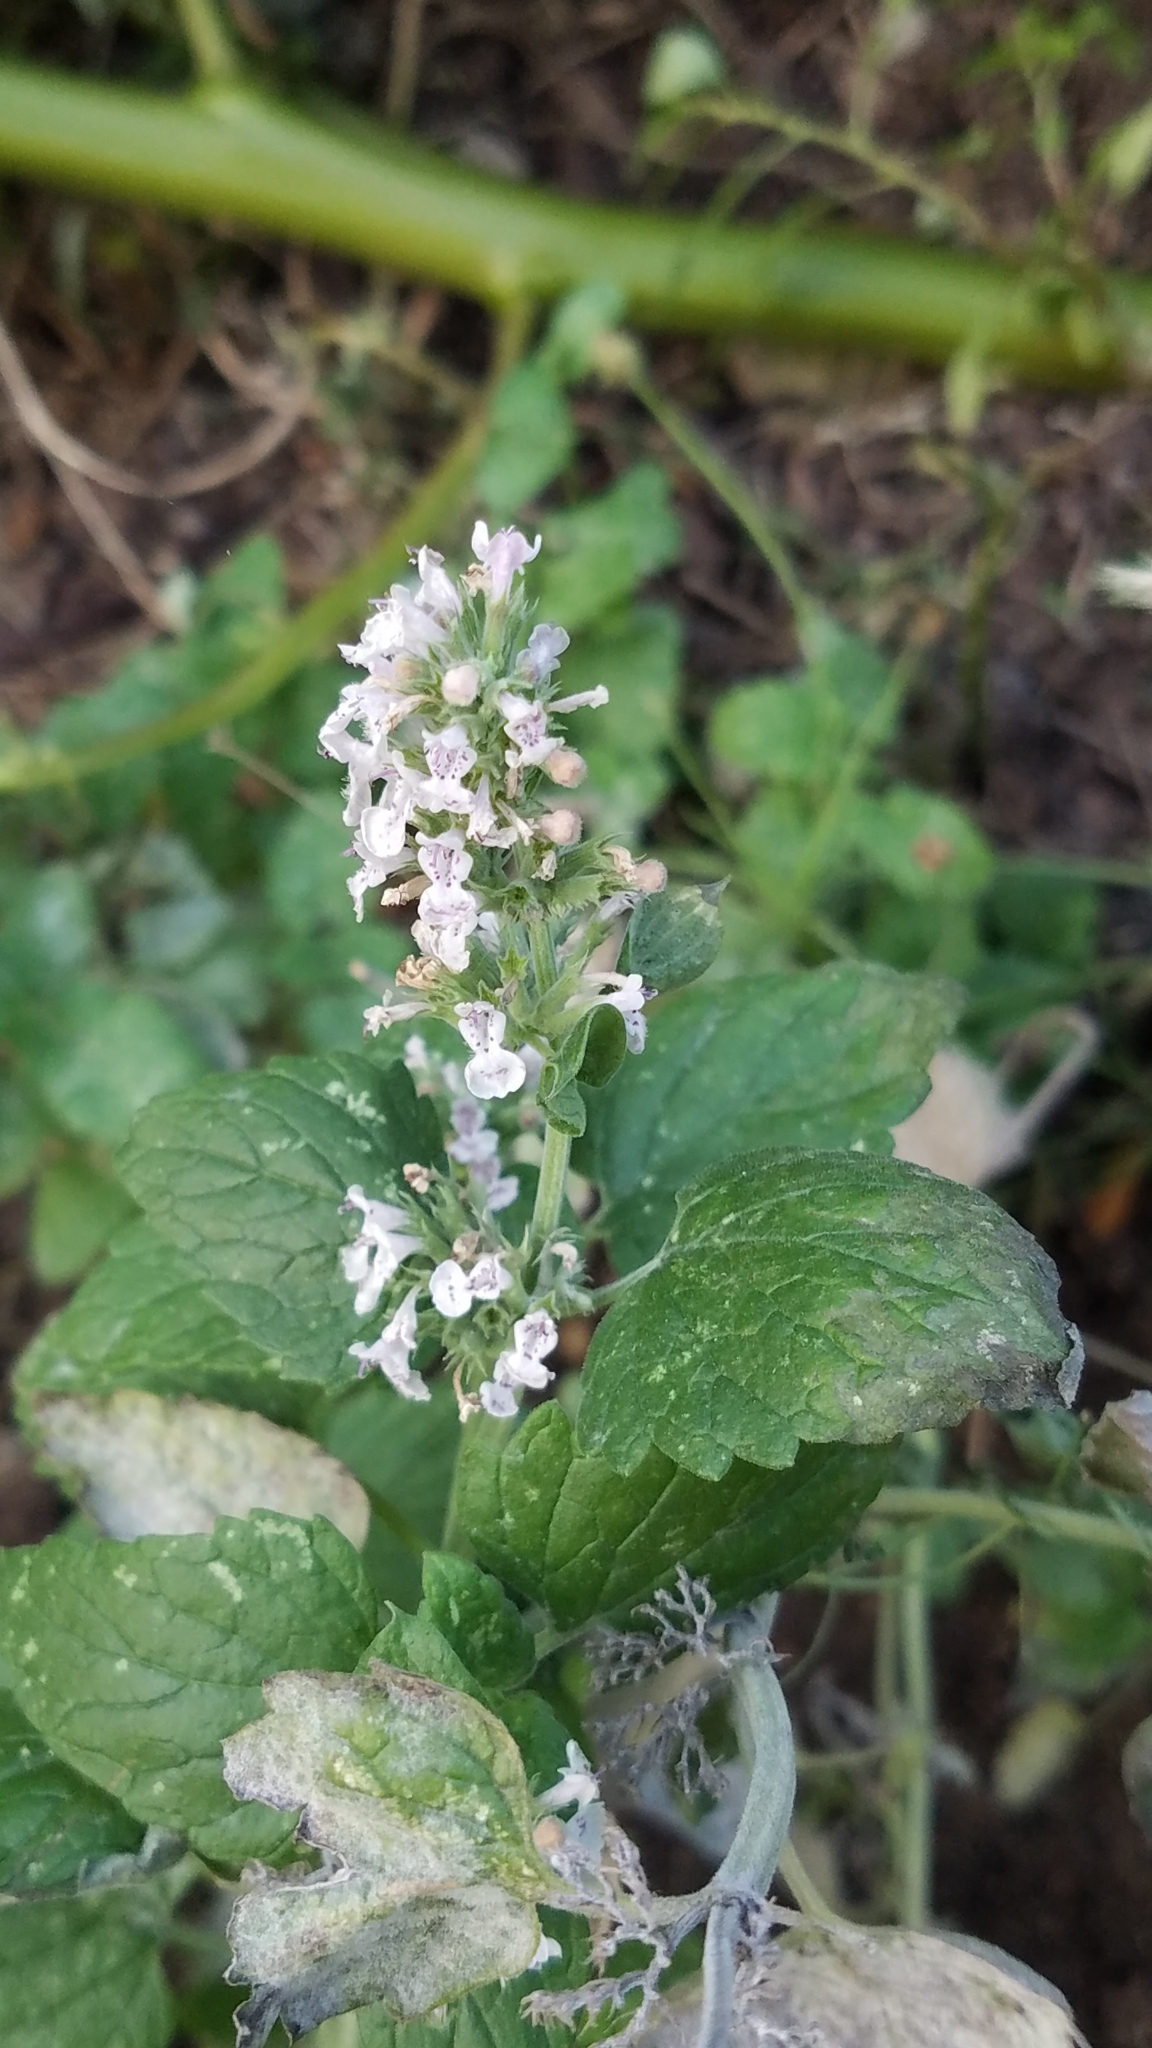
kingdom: Plantae
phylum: Tracheophyta
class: Magnoliopsida
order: Lamiales
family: Lamiaceae
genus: Nepeta
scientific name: Nepeta cataria
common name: Catnip
